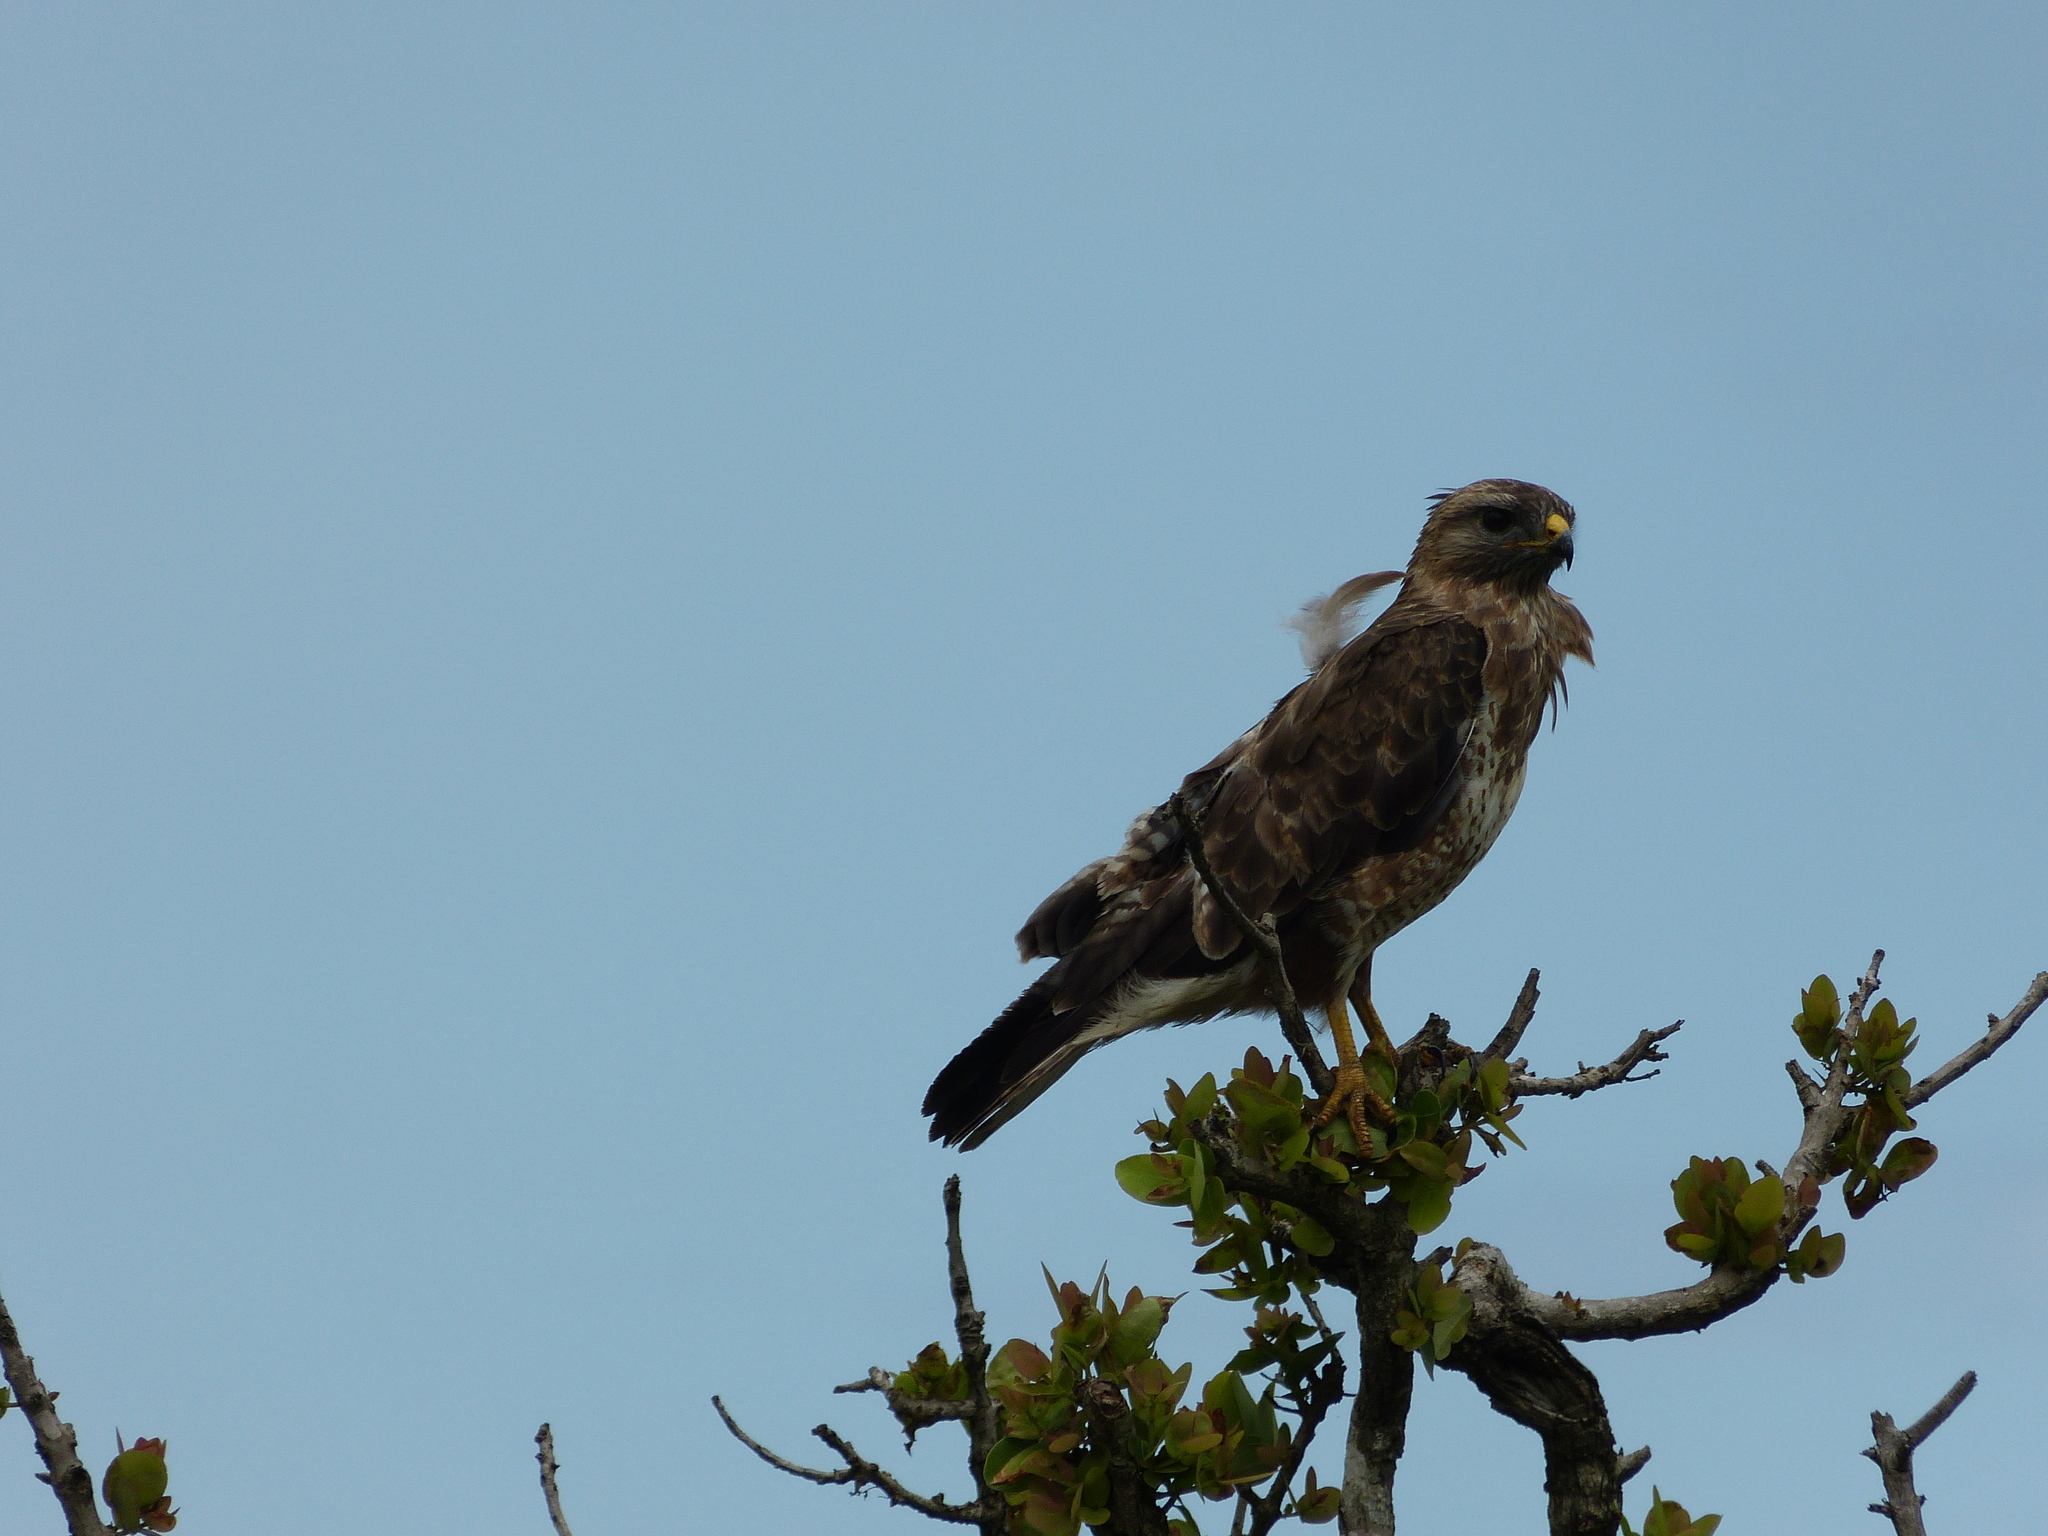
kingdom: Animalia
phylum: Chordata
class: Aves
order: Accipitriformes
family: Accipitridae
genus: Buteo
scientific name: Buteo buteo
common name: Common buzzard
